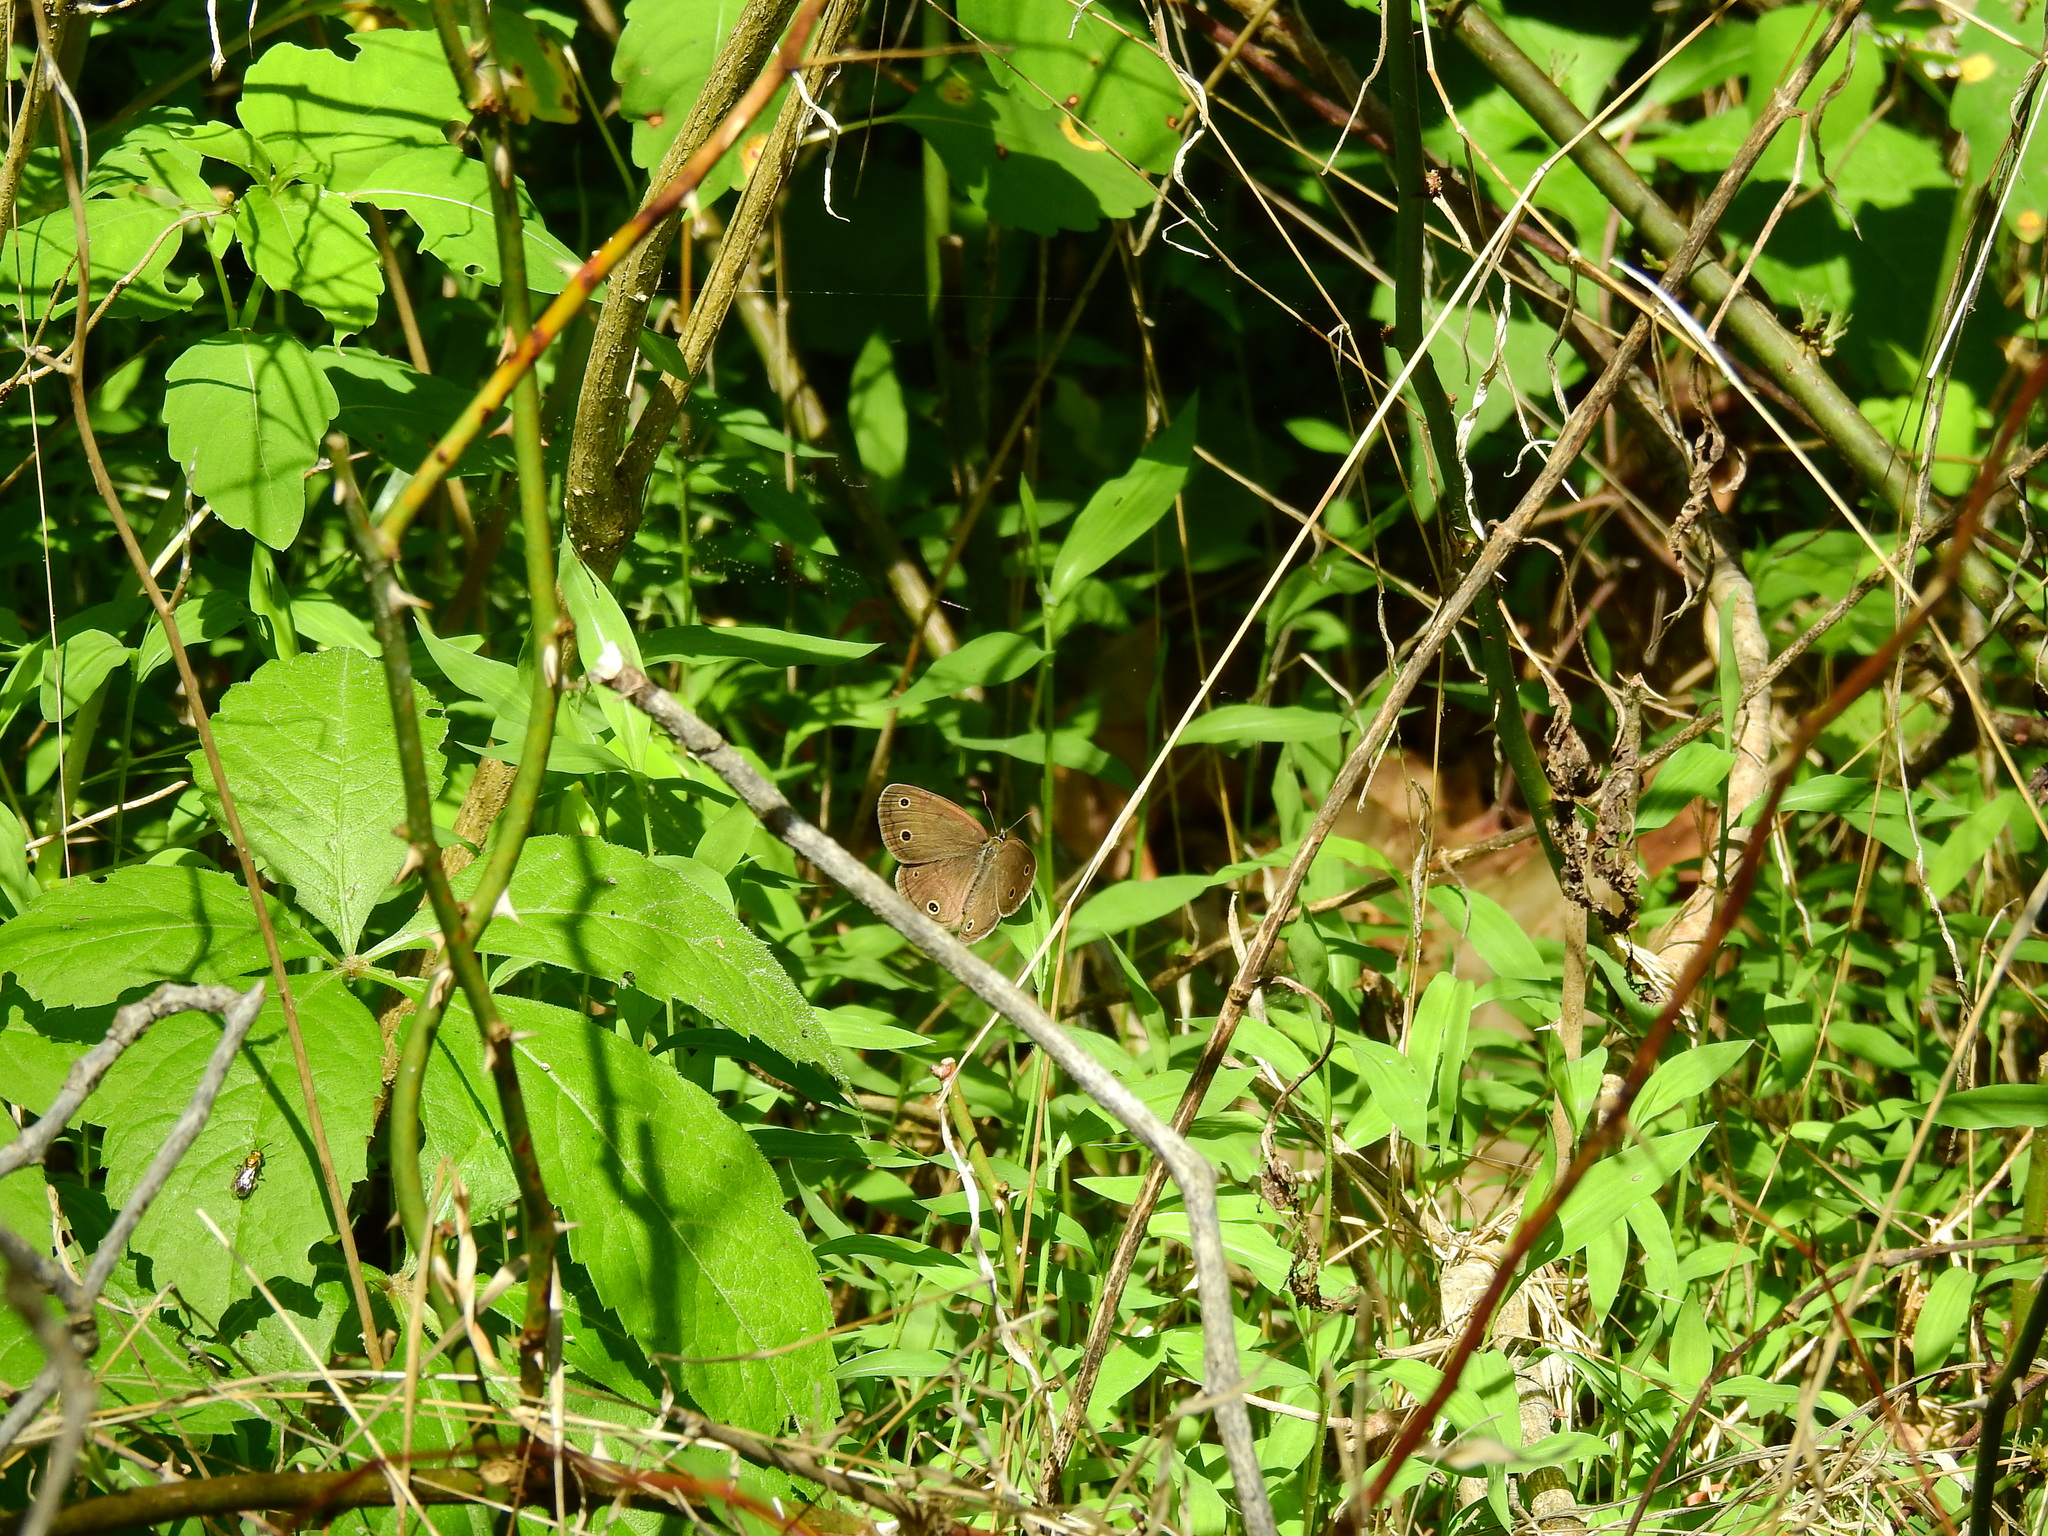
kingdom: Animalia
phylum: Arthropoda
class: Insecta
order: Lepidoptera
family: Nymphalidae
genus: Euptychia
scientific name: Euptychia cymela
